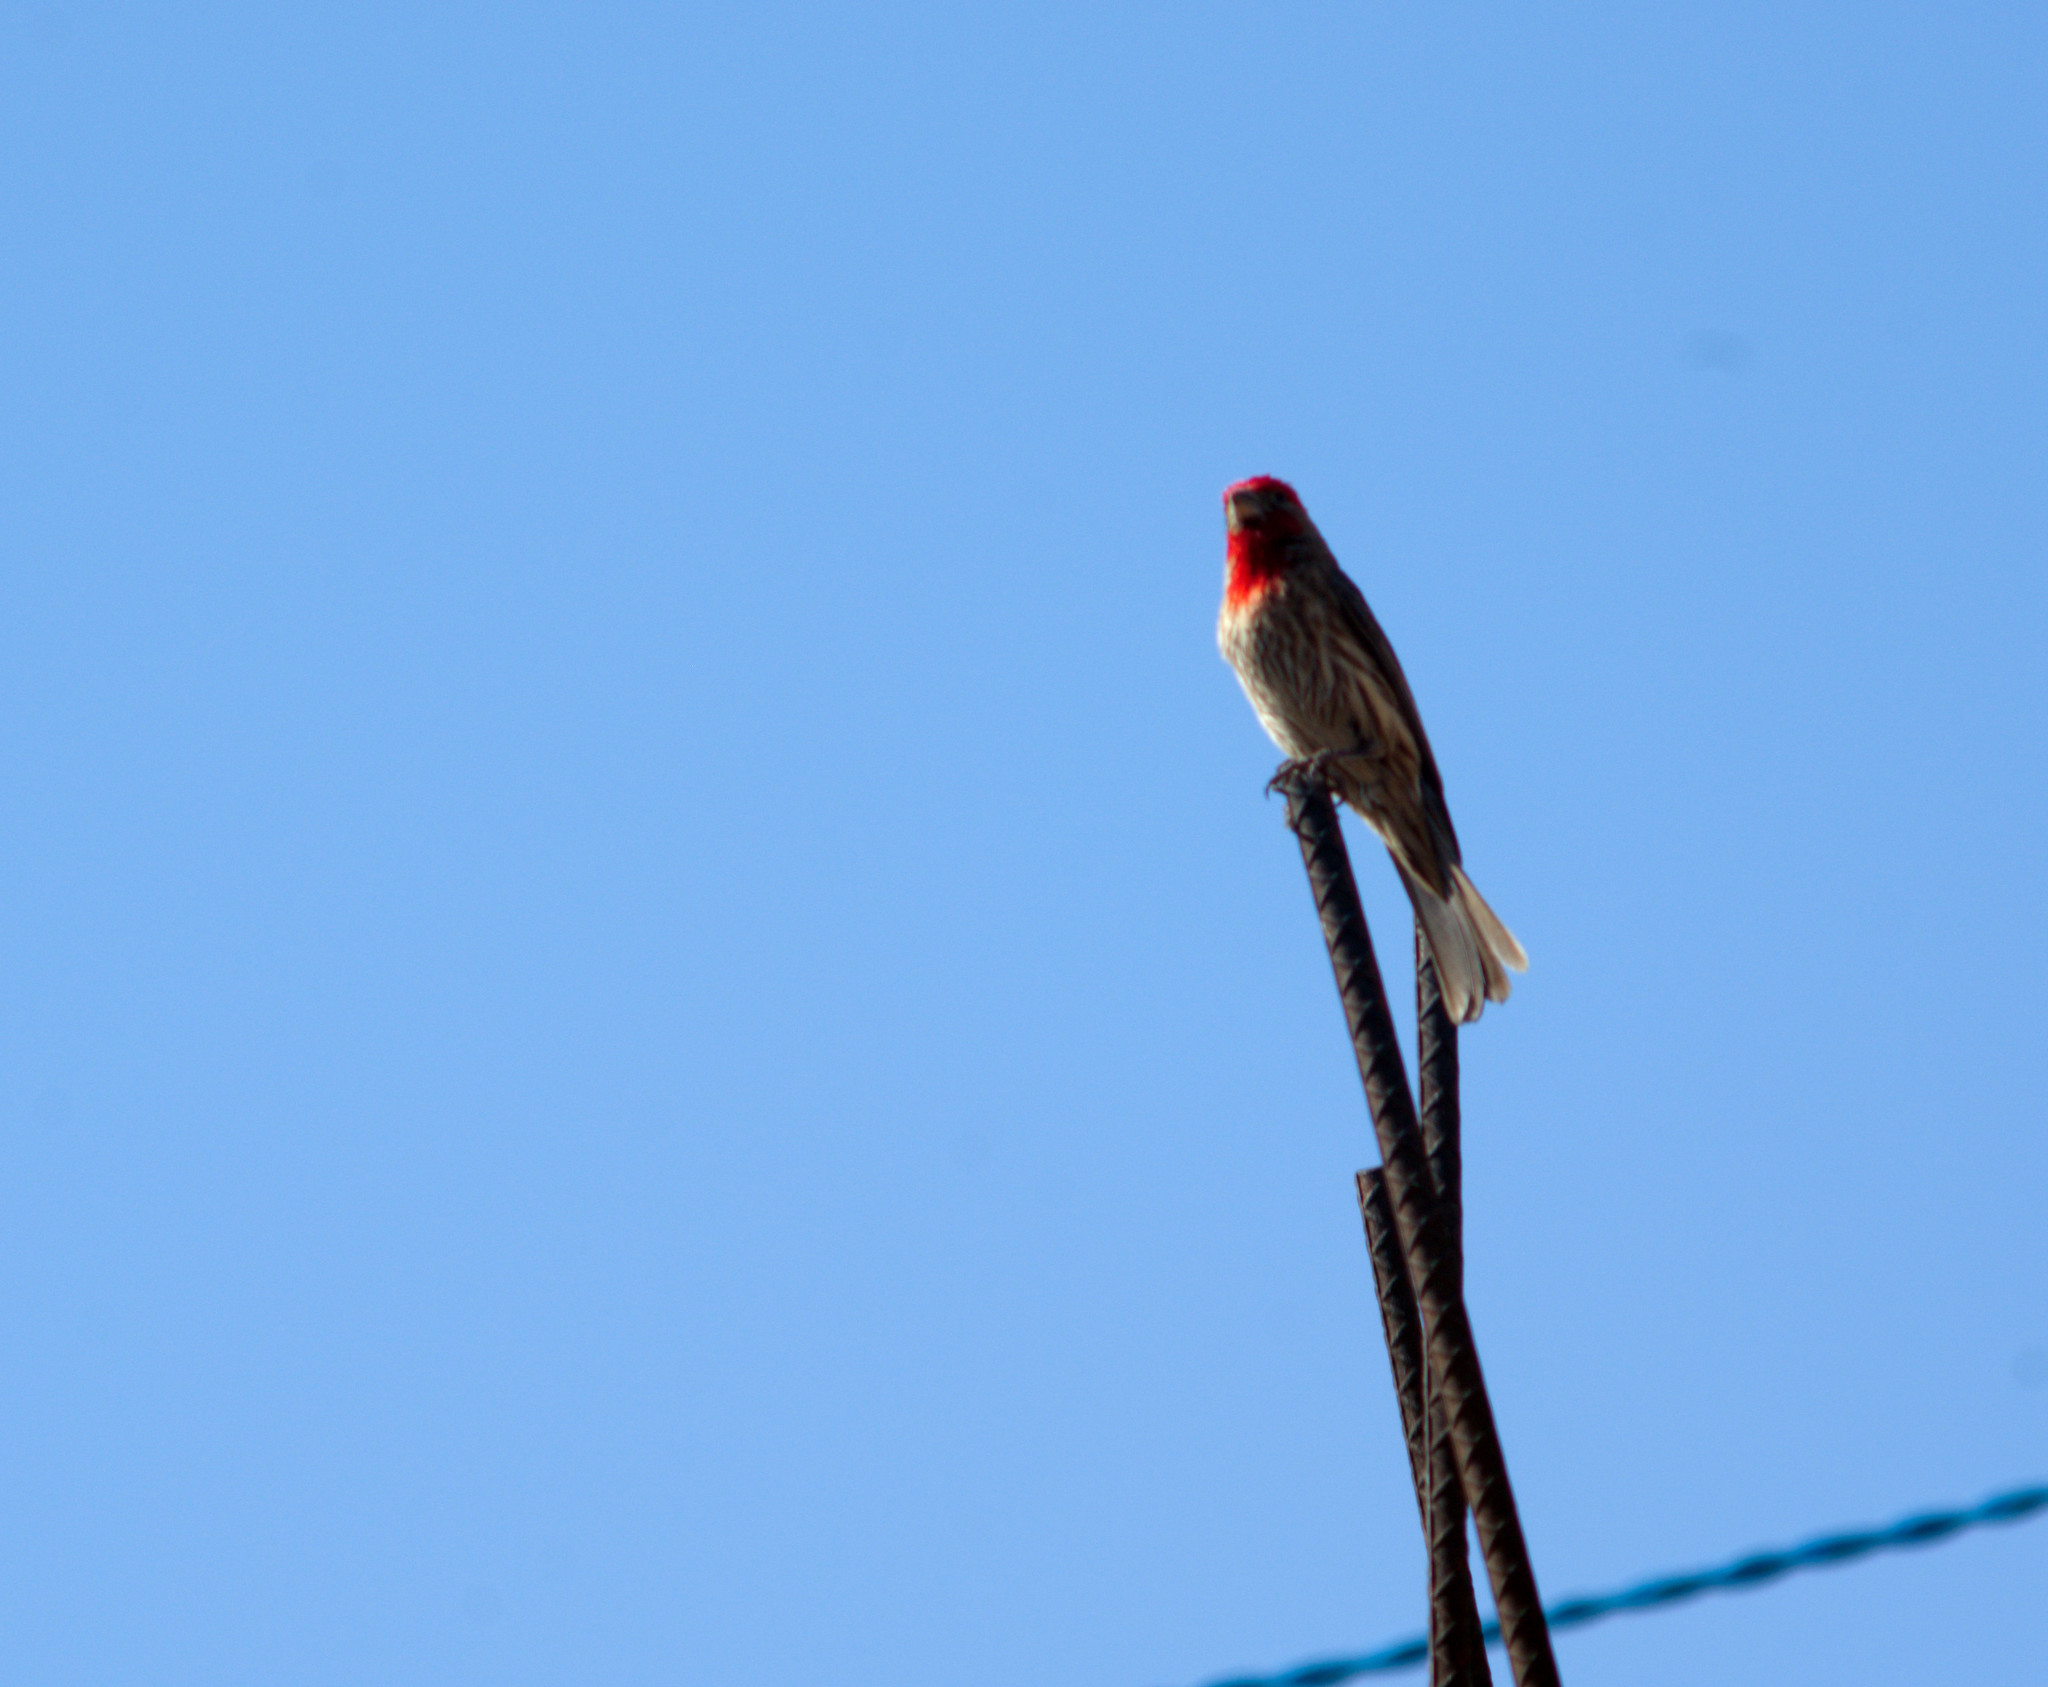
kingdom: Animalia
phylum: Chordata
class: Aves
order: Passeriformes
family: Fringillidae
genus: Haemorhous
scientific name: Haemorhous mexicanus
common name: House finch
